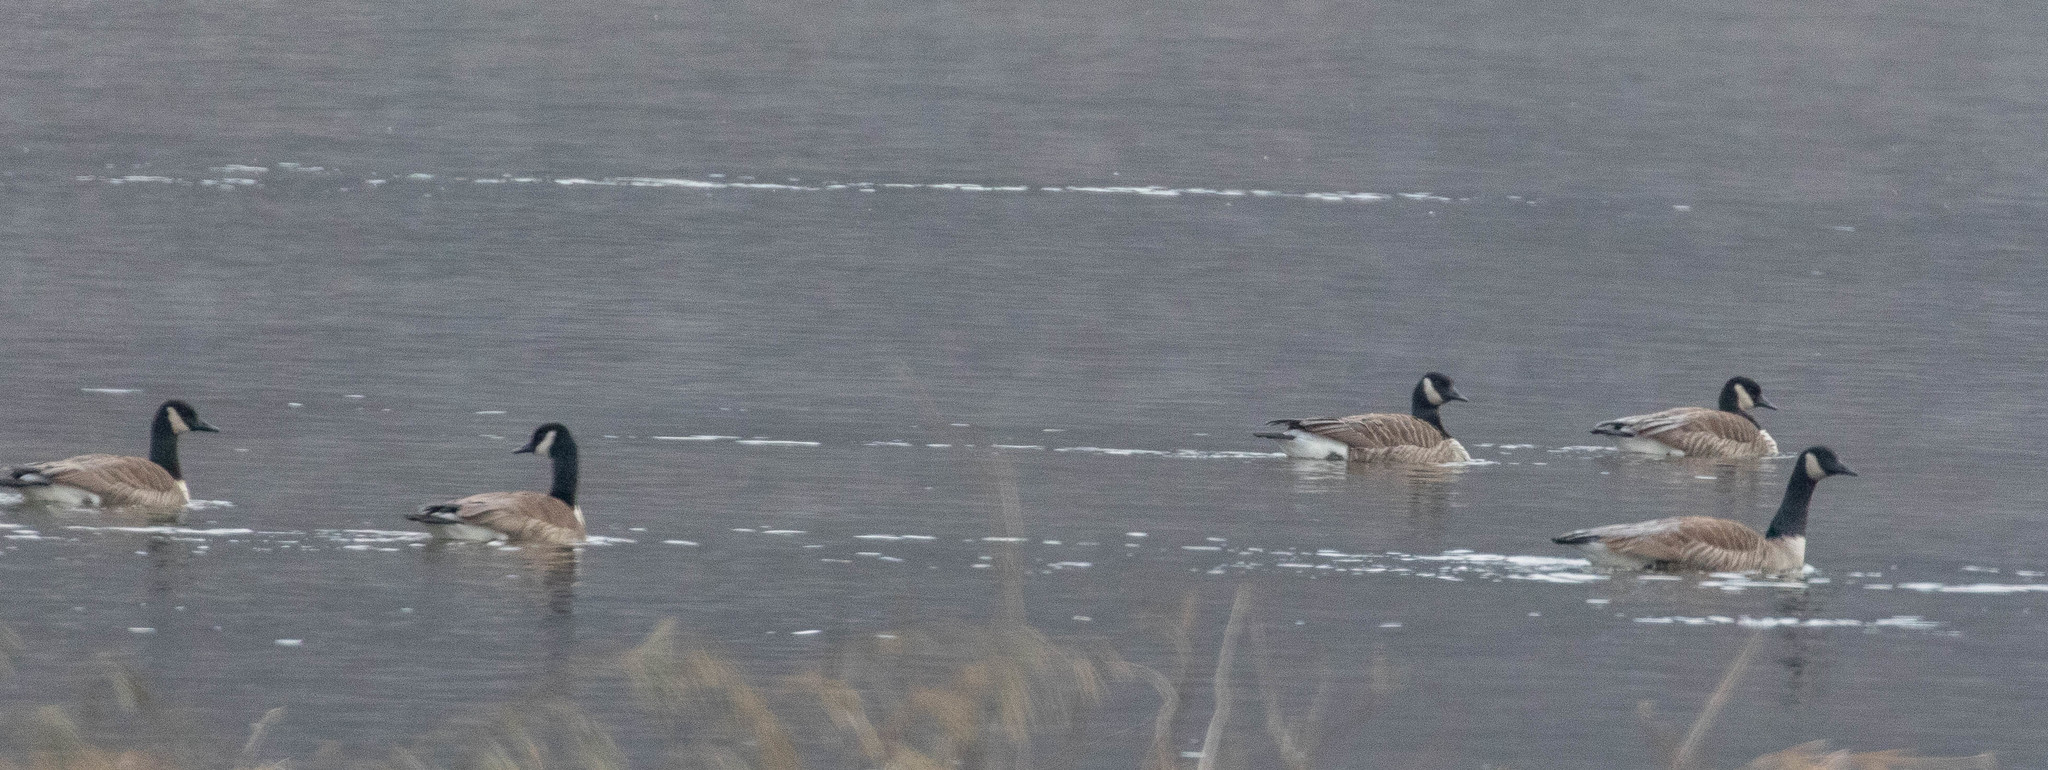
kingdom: Animalia
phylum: Chordata
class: Aves
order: Anseriformes
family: Anatidae
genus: Branta
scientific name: Branta canadensis
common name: Canada goose
